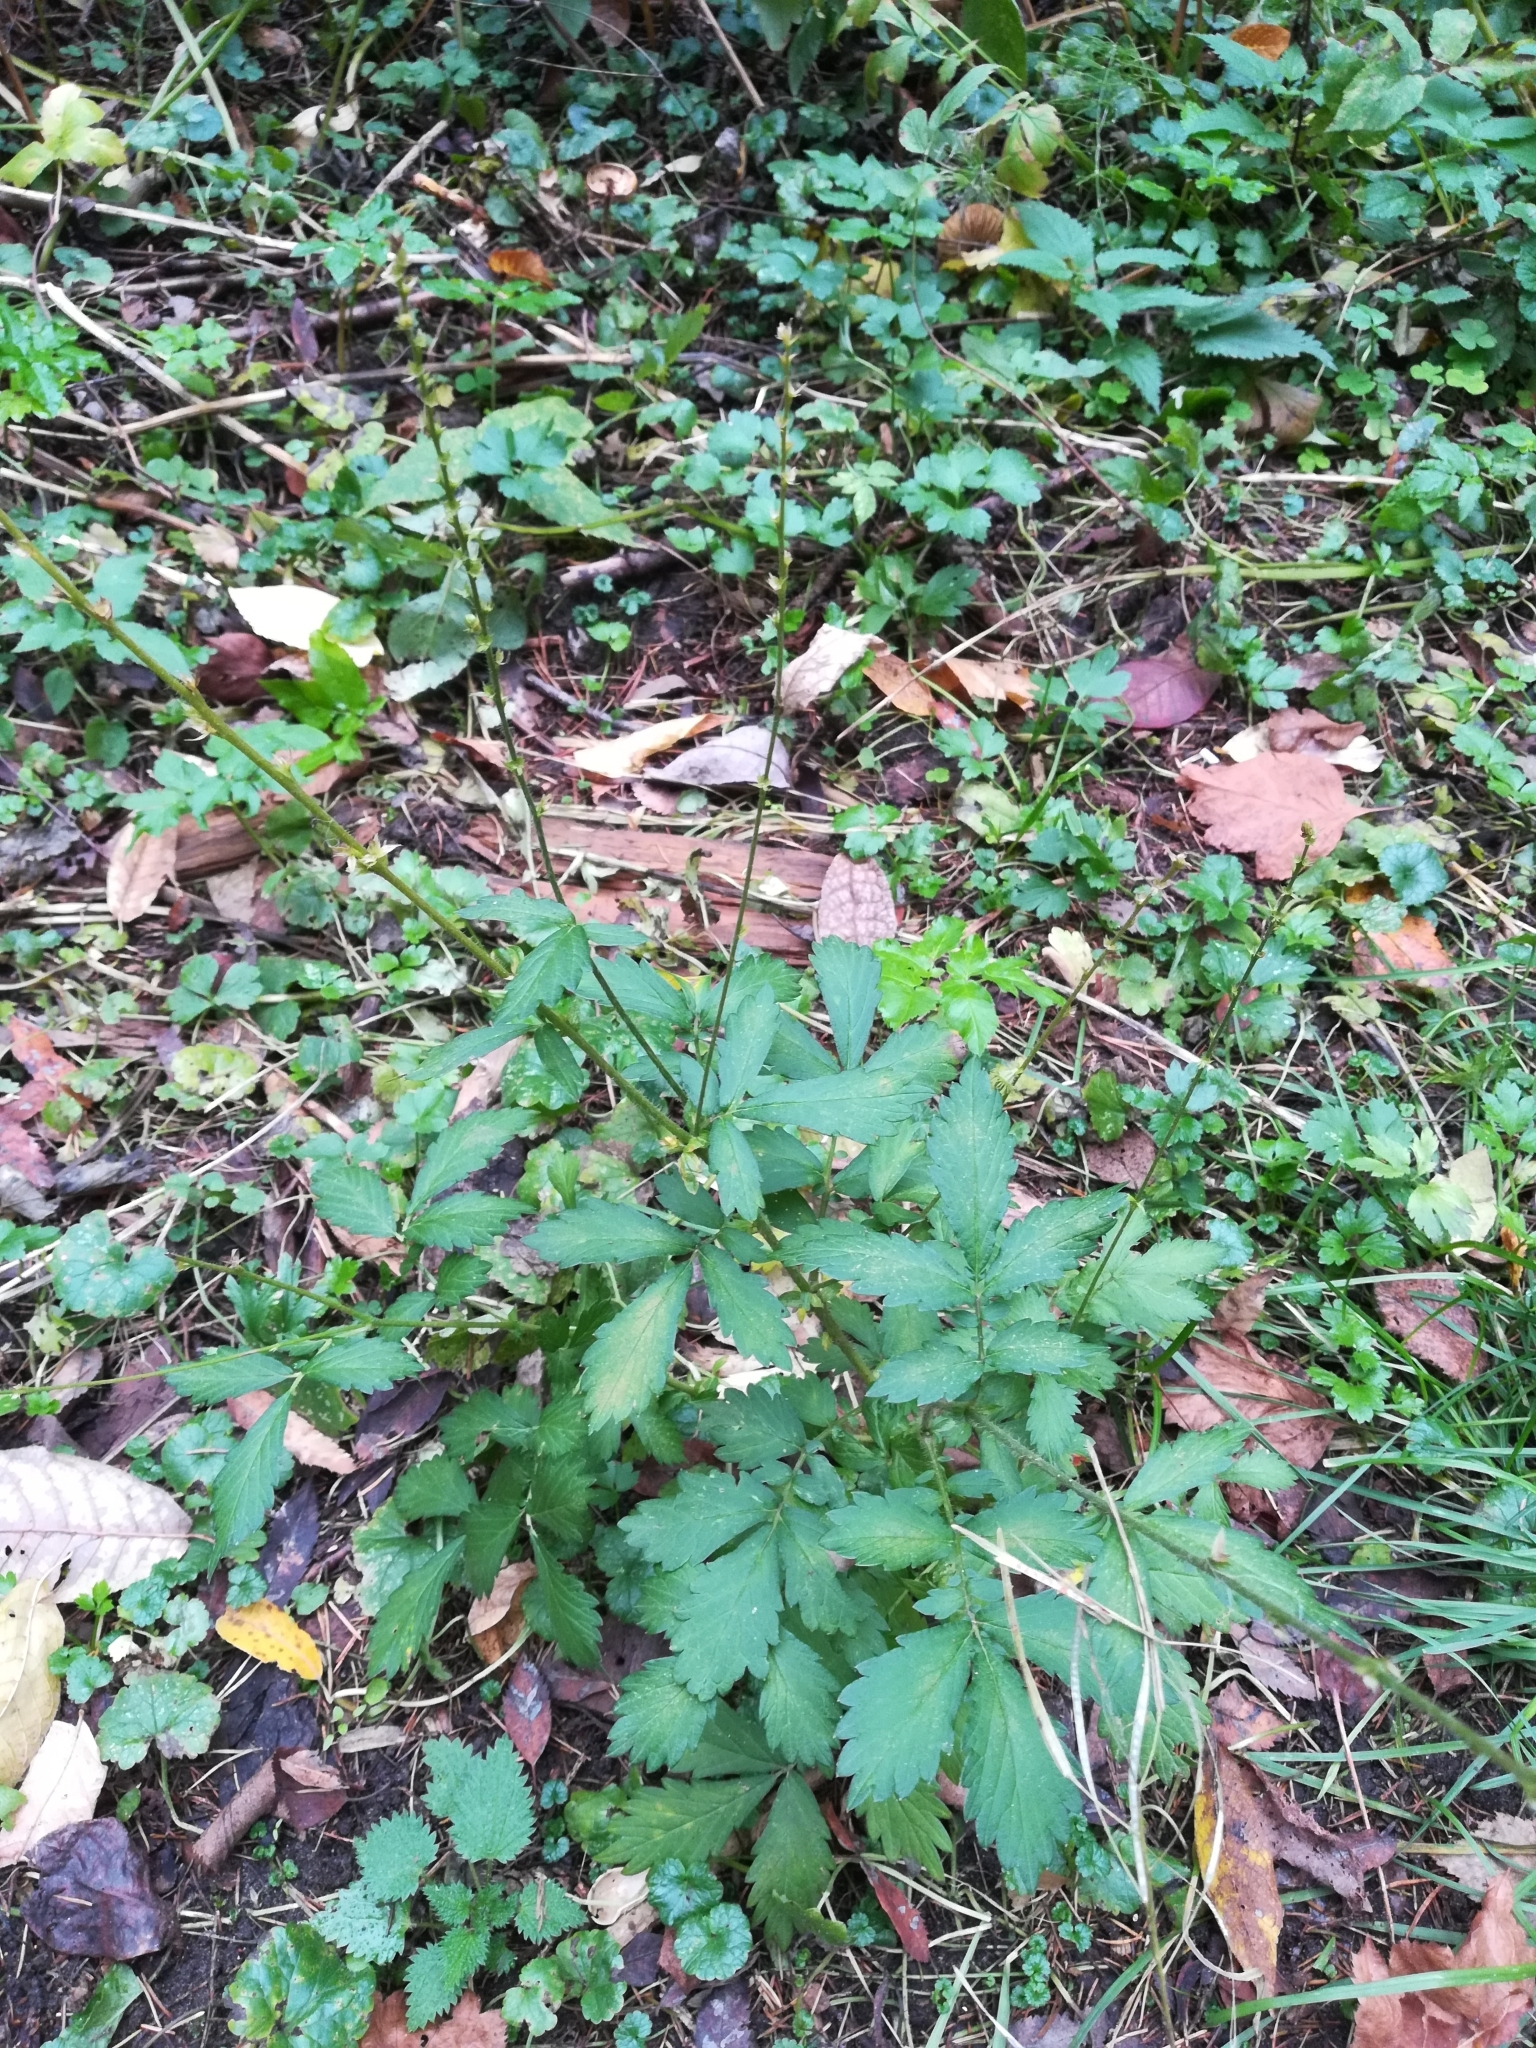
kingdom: Plantae
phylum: Tracheophyta
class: Magnoliopsida
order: Rosales
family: Rosaceae
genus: Agrimonia
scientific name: Agrimonia pilosa
